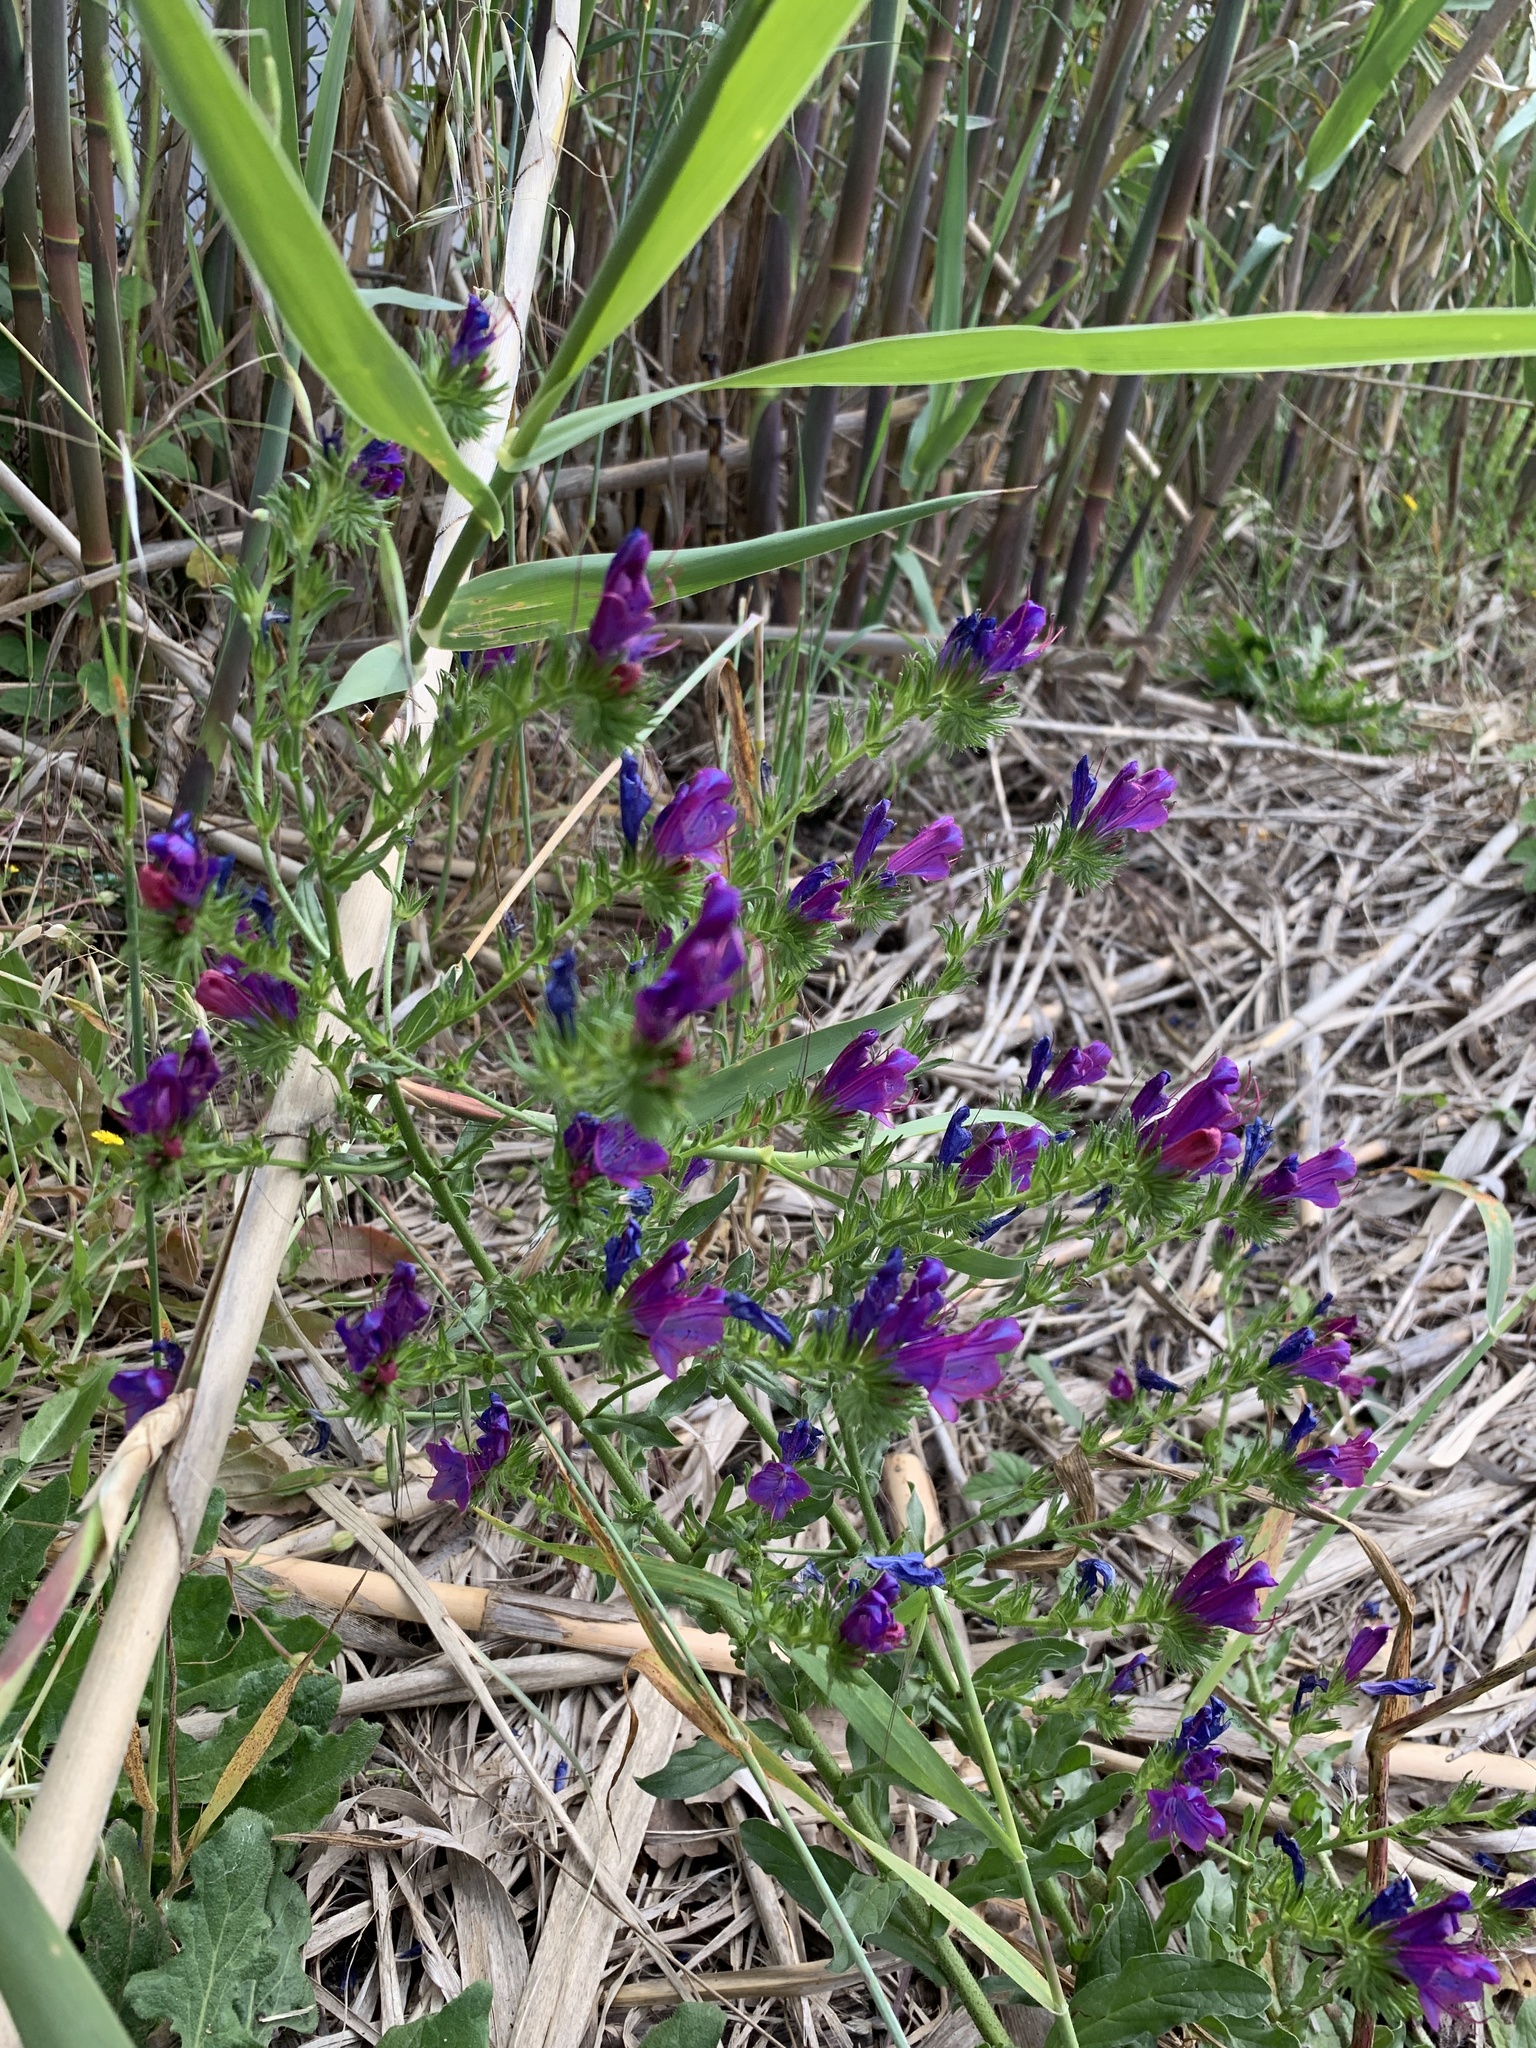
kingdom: Plantae
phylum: Tracheophyta
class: Magnoliopsida
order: Boraginales
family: Boraginaceae
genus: Echium
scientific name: Echium plantagineum
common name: Purple viper's-bugloss
